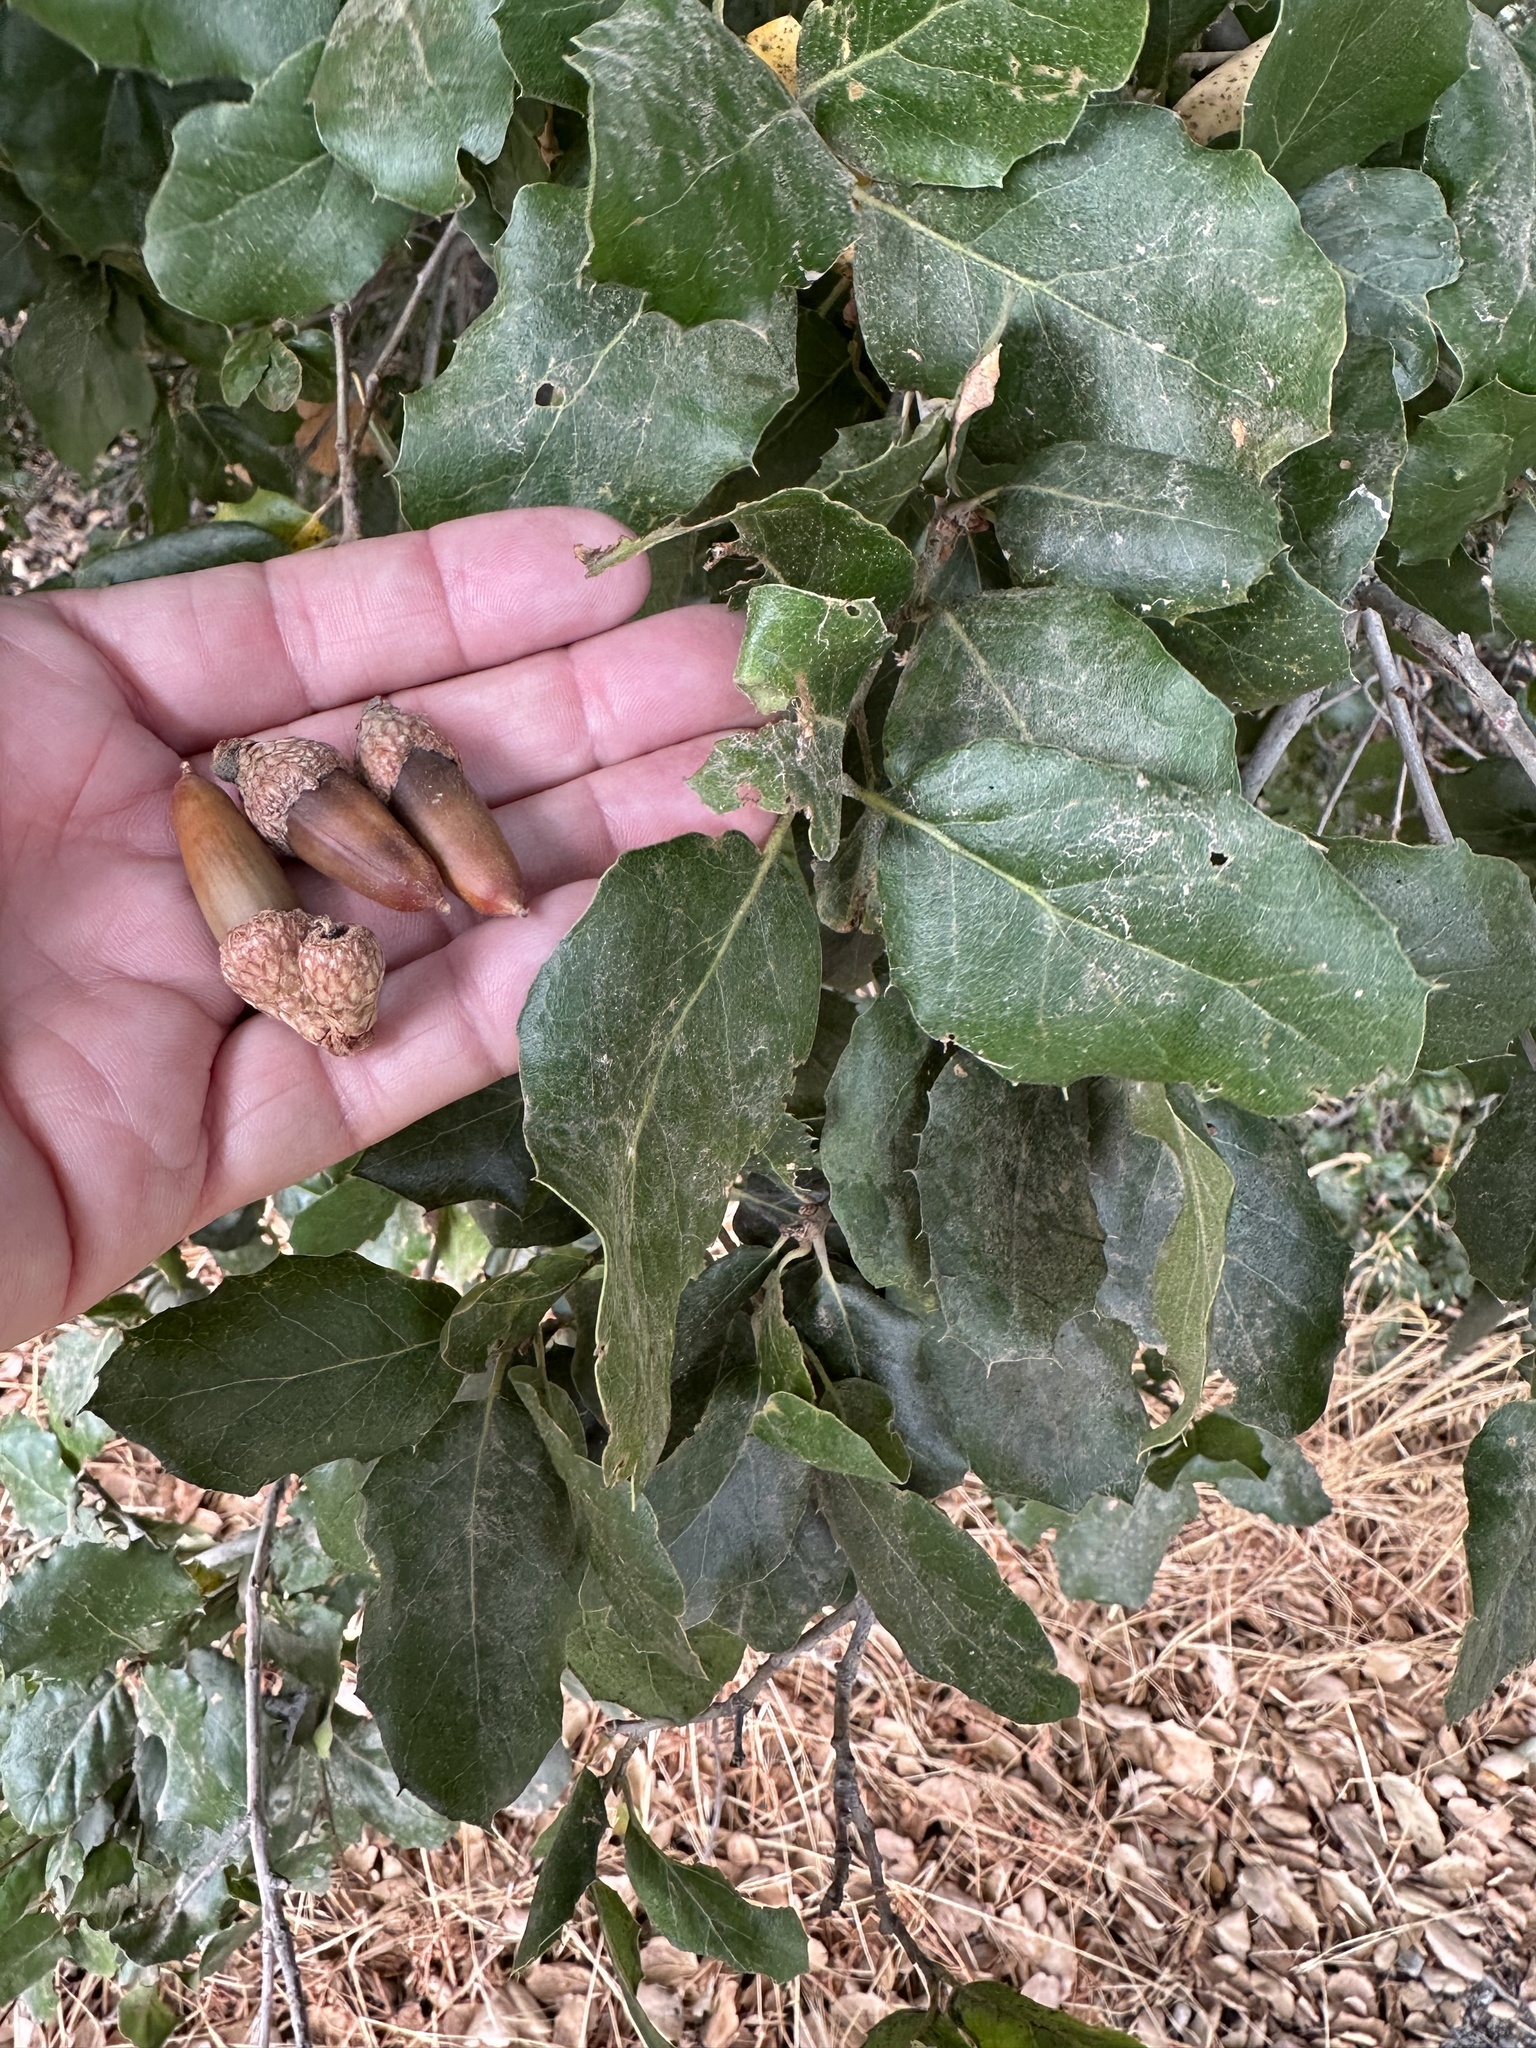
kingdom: Plantae
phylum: Tracheophyta
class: Magnoliopsida
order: Fagales
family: Fagaceae
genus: Quercus
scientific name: Quercus agrifolia
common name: California live oak
